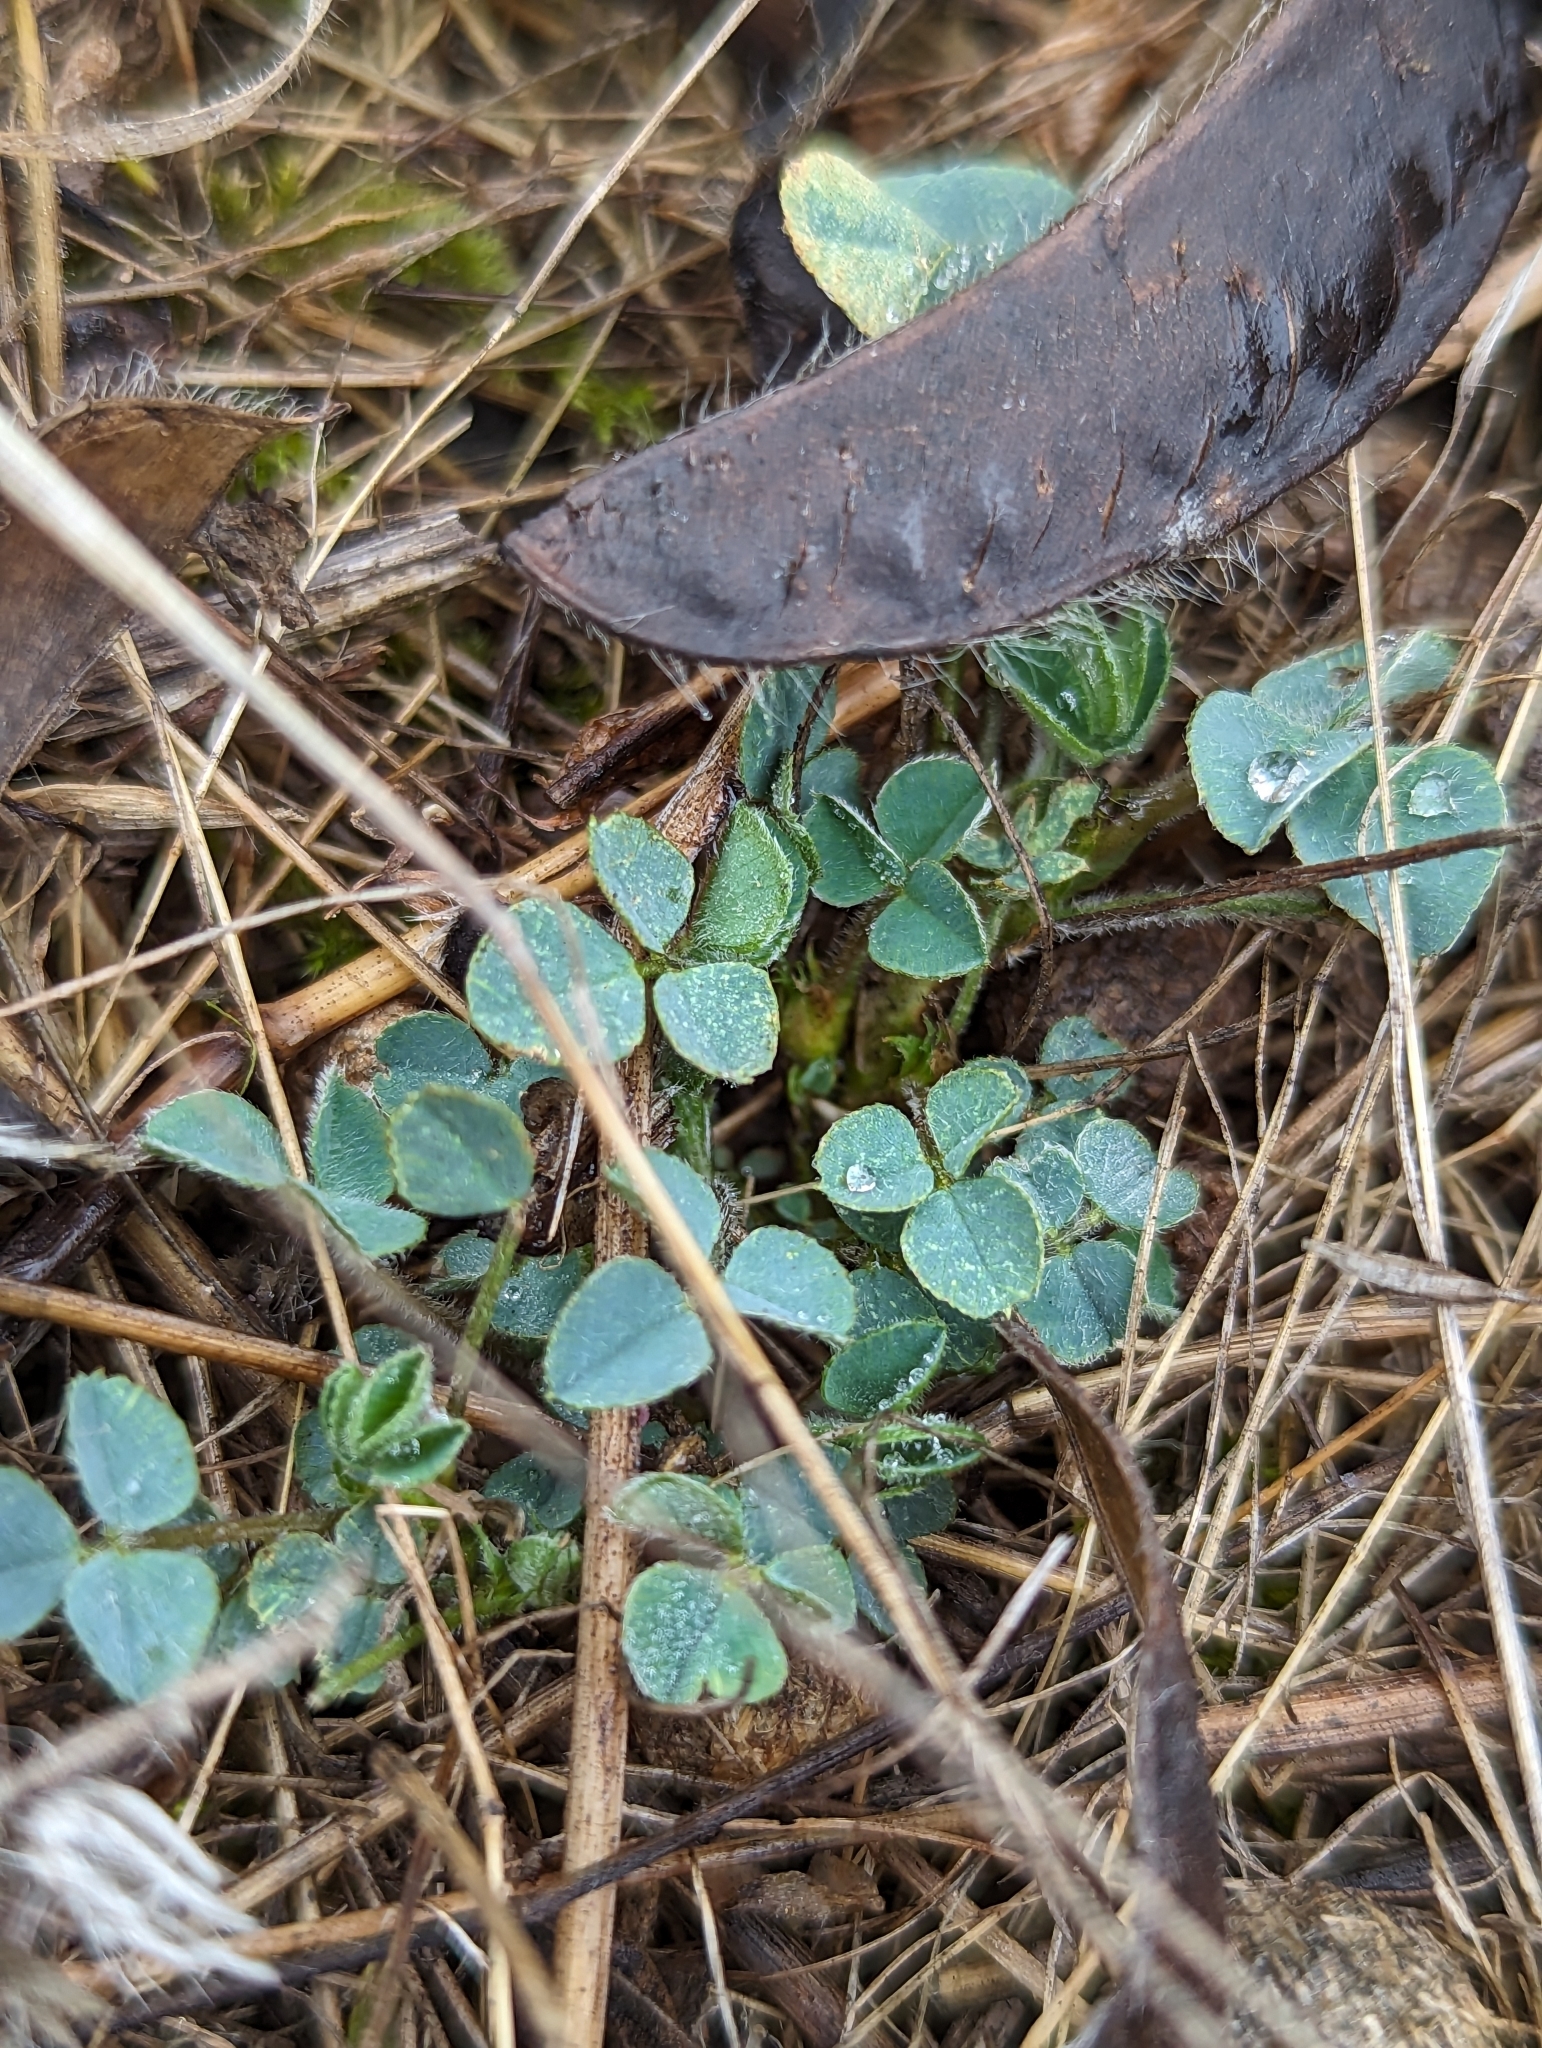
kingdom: Plantae
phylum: Tracheophyta
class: Magnoliopsida
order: Fabales
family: Fabaceae
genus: Medicago
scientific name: Medicago lupulina
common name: Black medick
